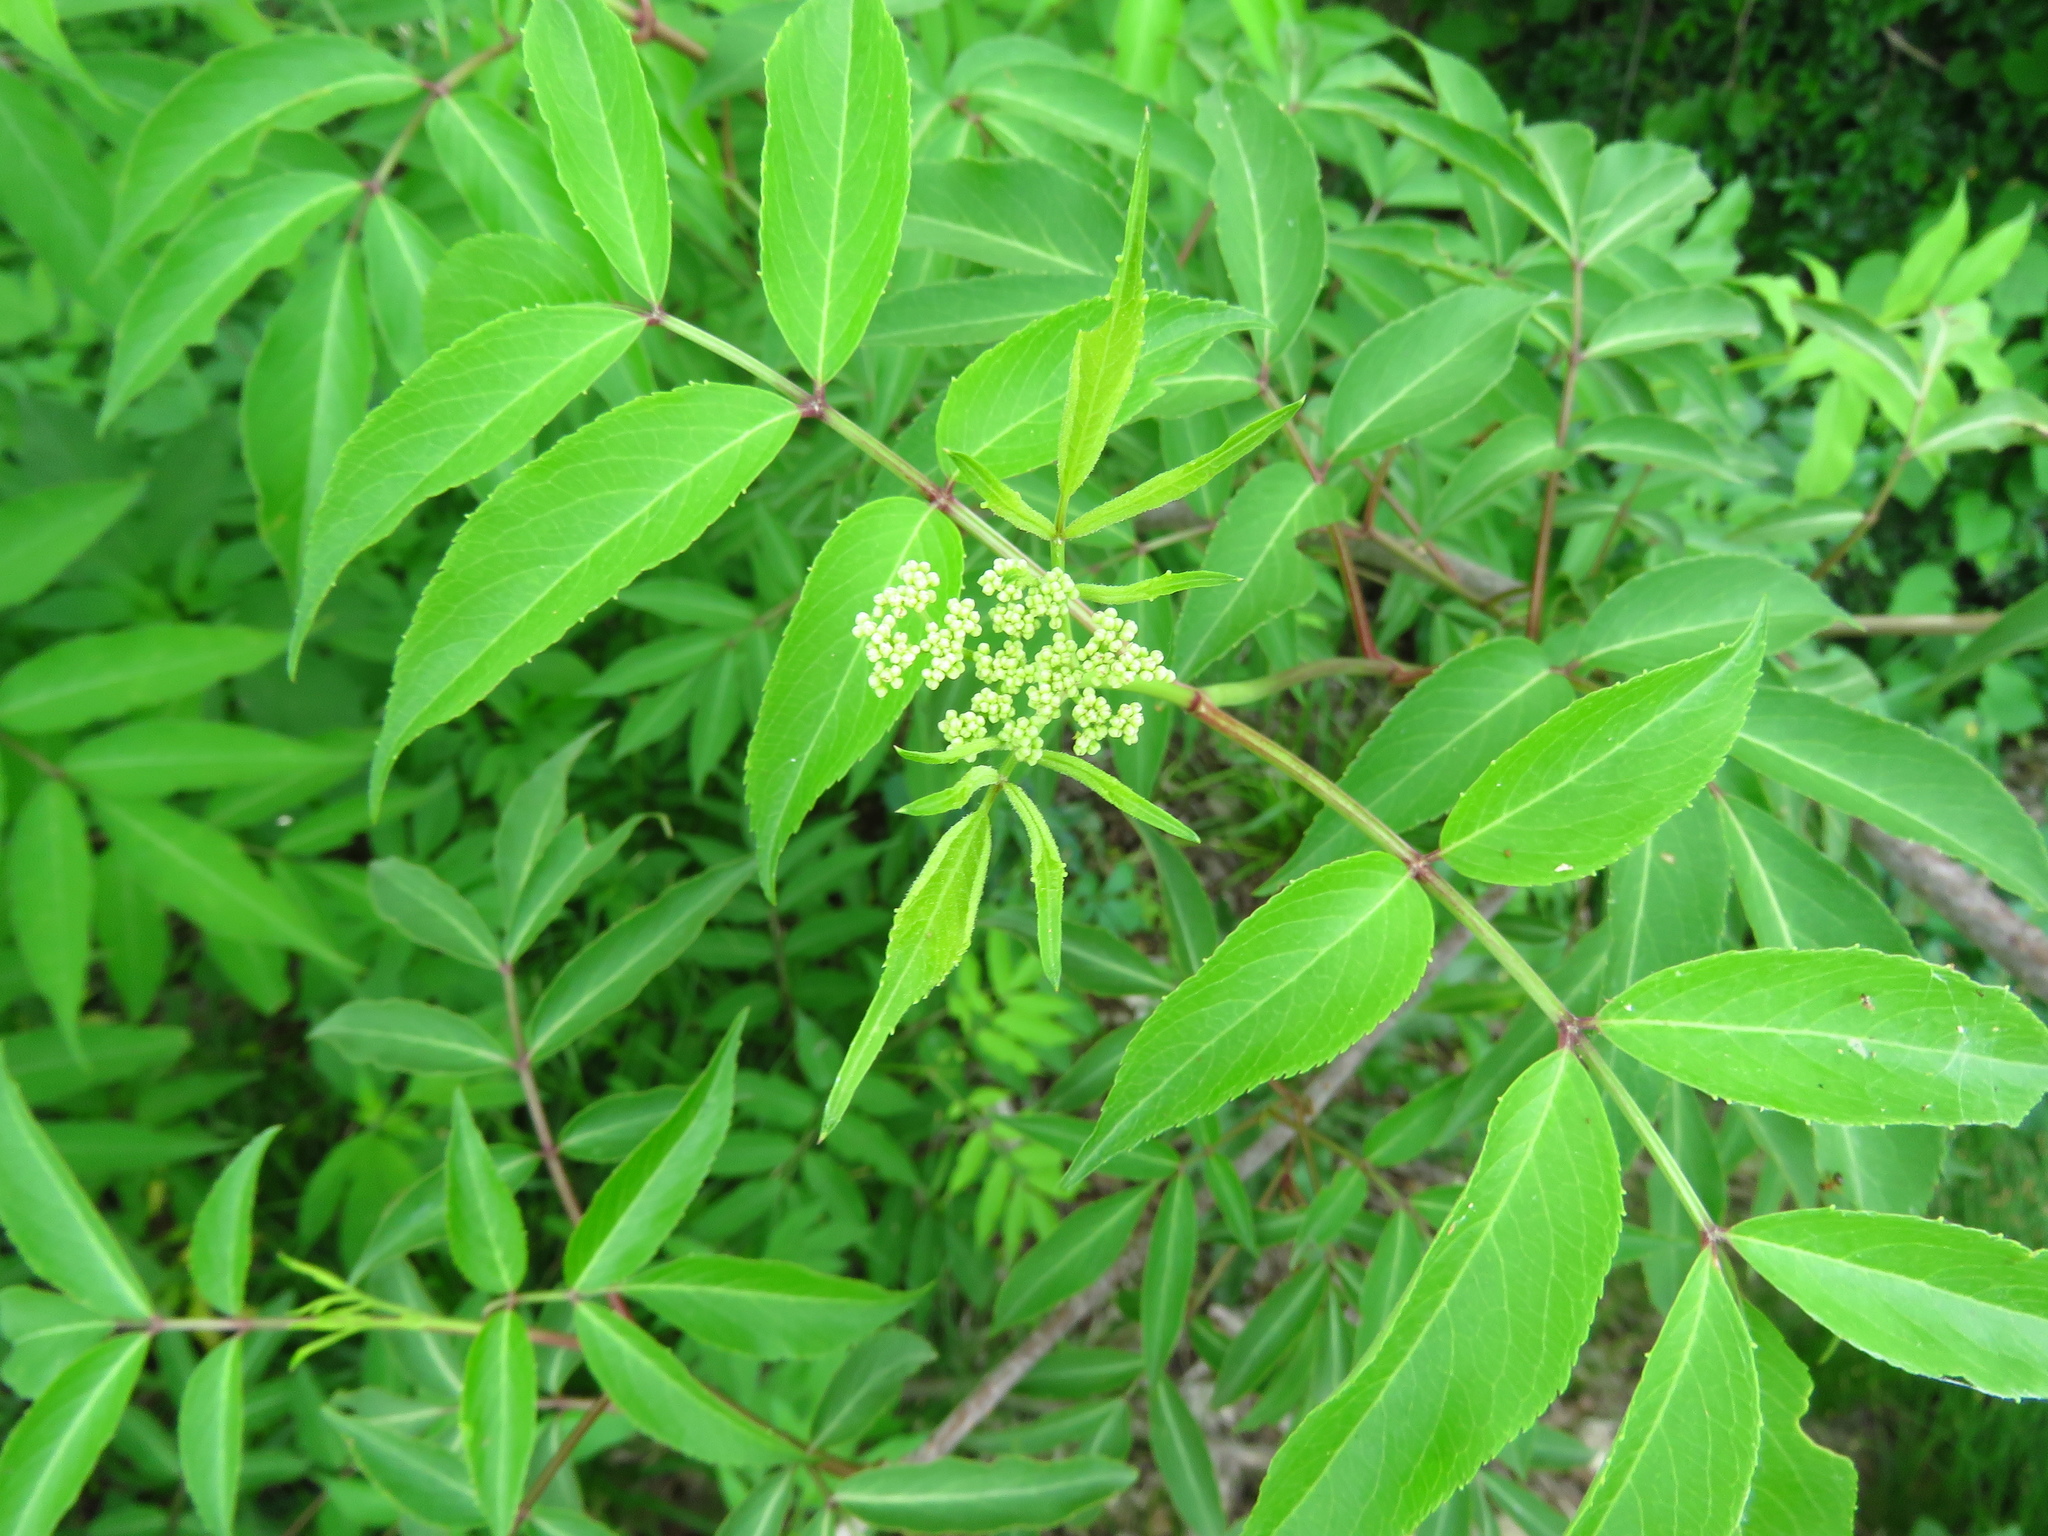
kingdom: Plantae
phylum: Tracheophyta
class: Magnoliopsida
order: Dipsacales
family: Viburnaceae
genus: Sambucus
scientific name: Sambucus canadensis
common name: American elder
